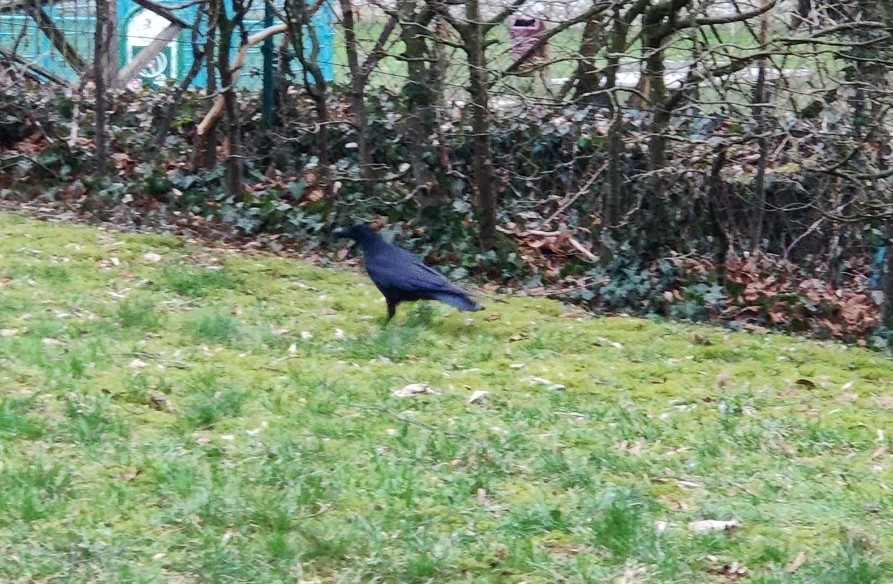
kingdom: Animalia
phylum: Chordata
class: Aves
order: Passeriformes
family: Corvidae
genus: Corvus
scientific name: Corvus corone
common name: Carrion crow
